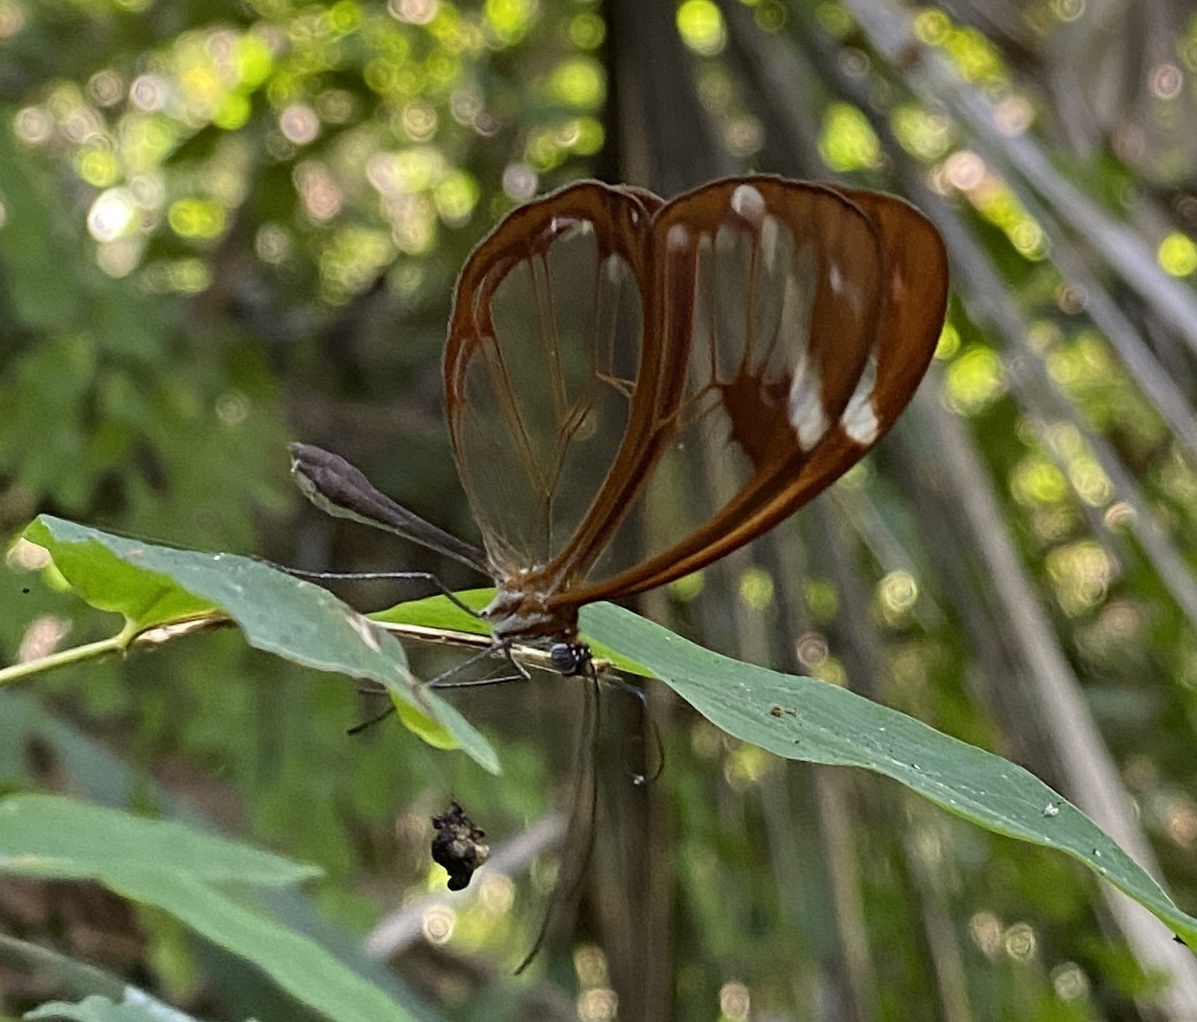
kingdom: Animalia
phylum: Arthropoda
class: Insecta
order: Lepidoptera
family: Nymphalidae
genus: Greta
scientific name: Greta morgane
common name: Thick-tipped greta
